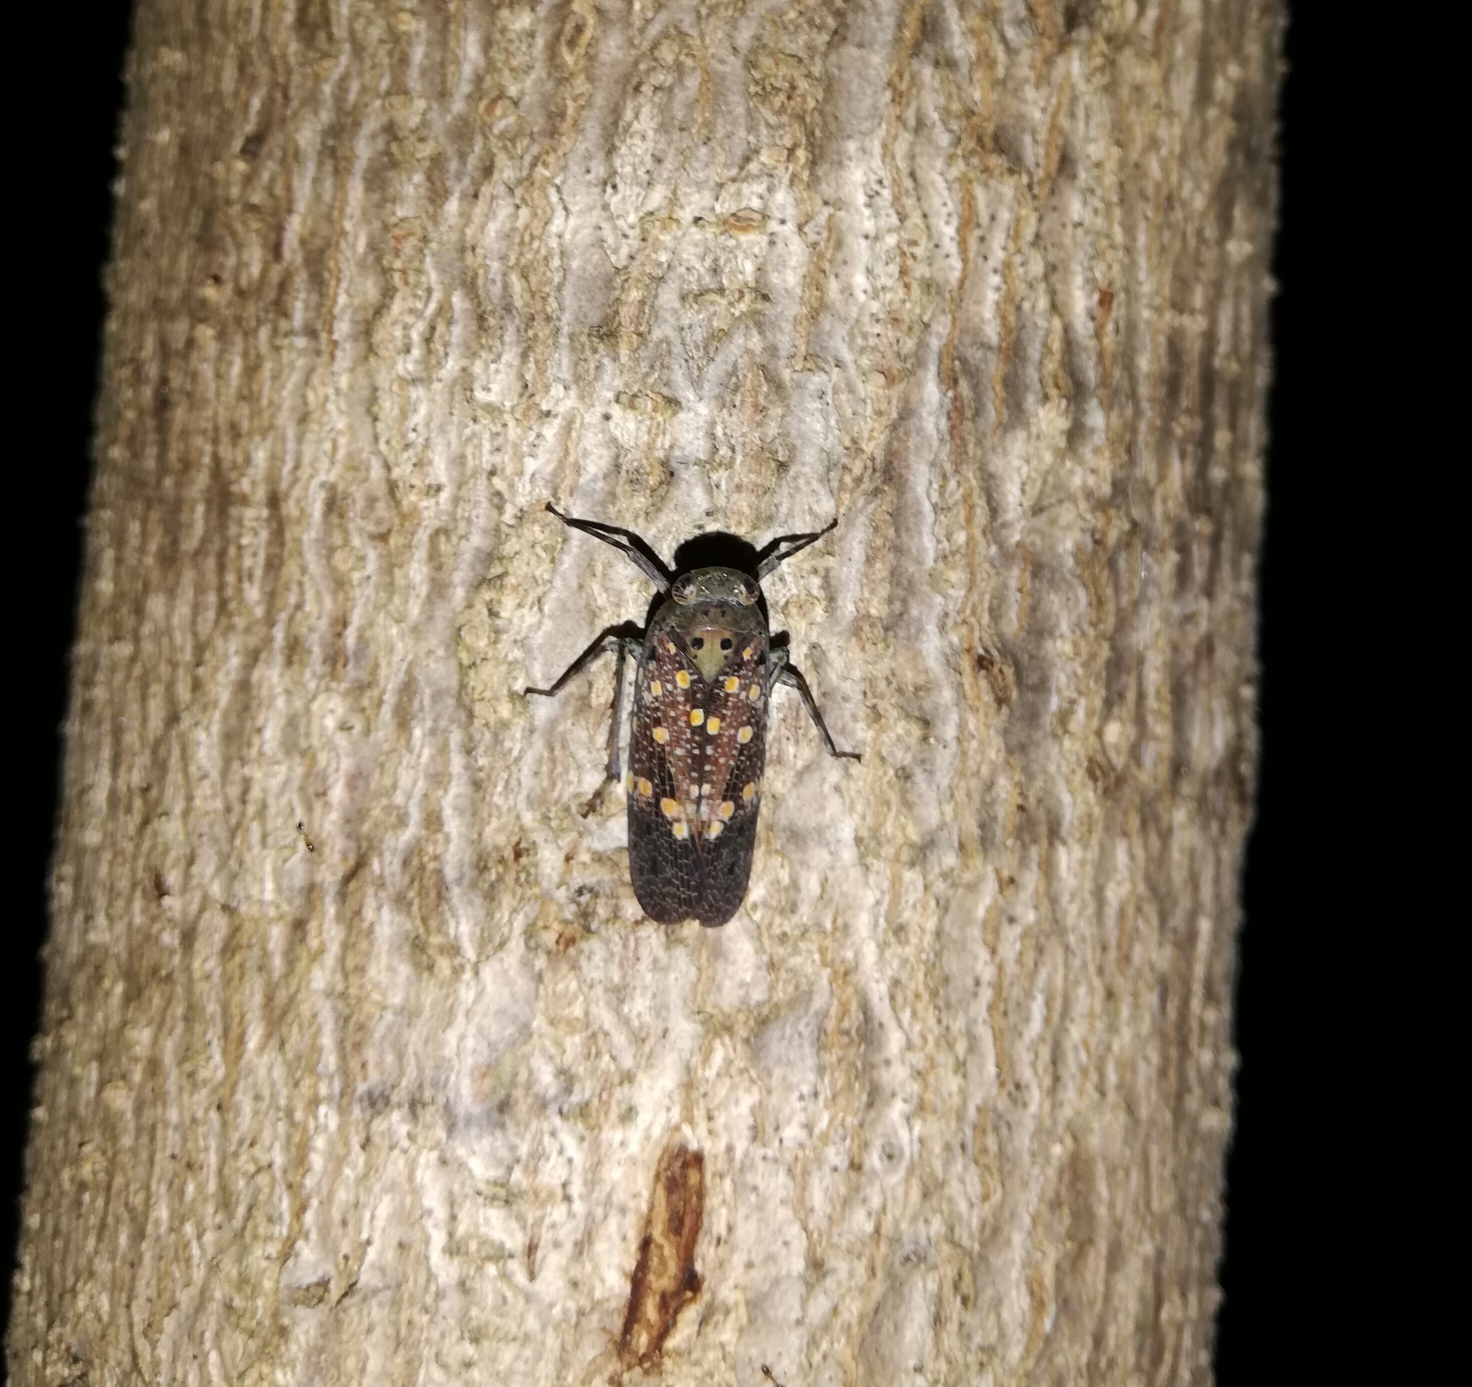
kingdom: Animalia
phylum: Arthropoda
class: Insecta
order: Hemiptera
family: Fulgoridae
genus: Desudaba
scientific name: Desudaba danae
